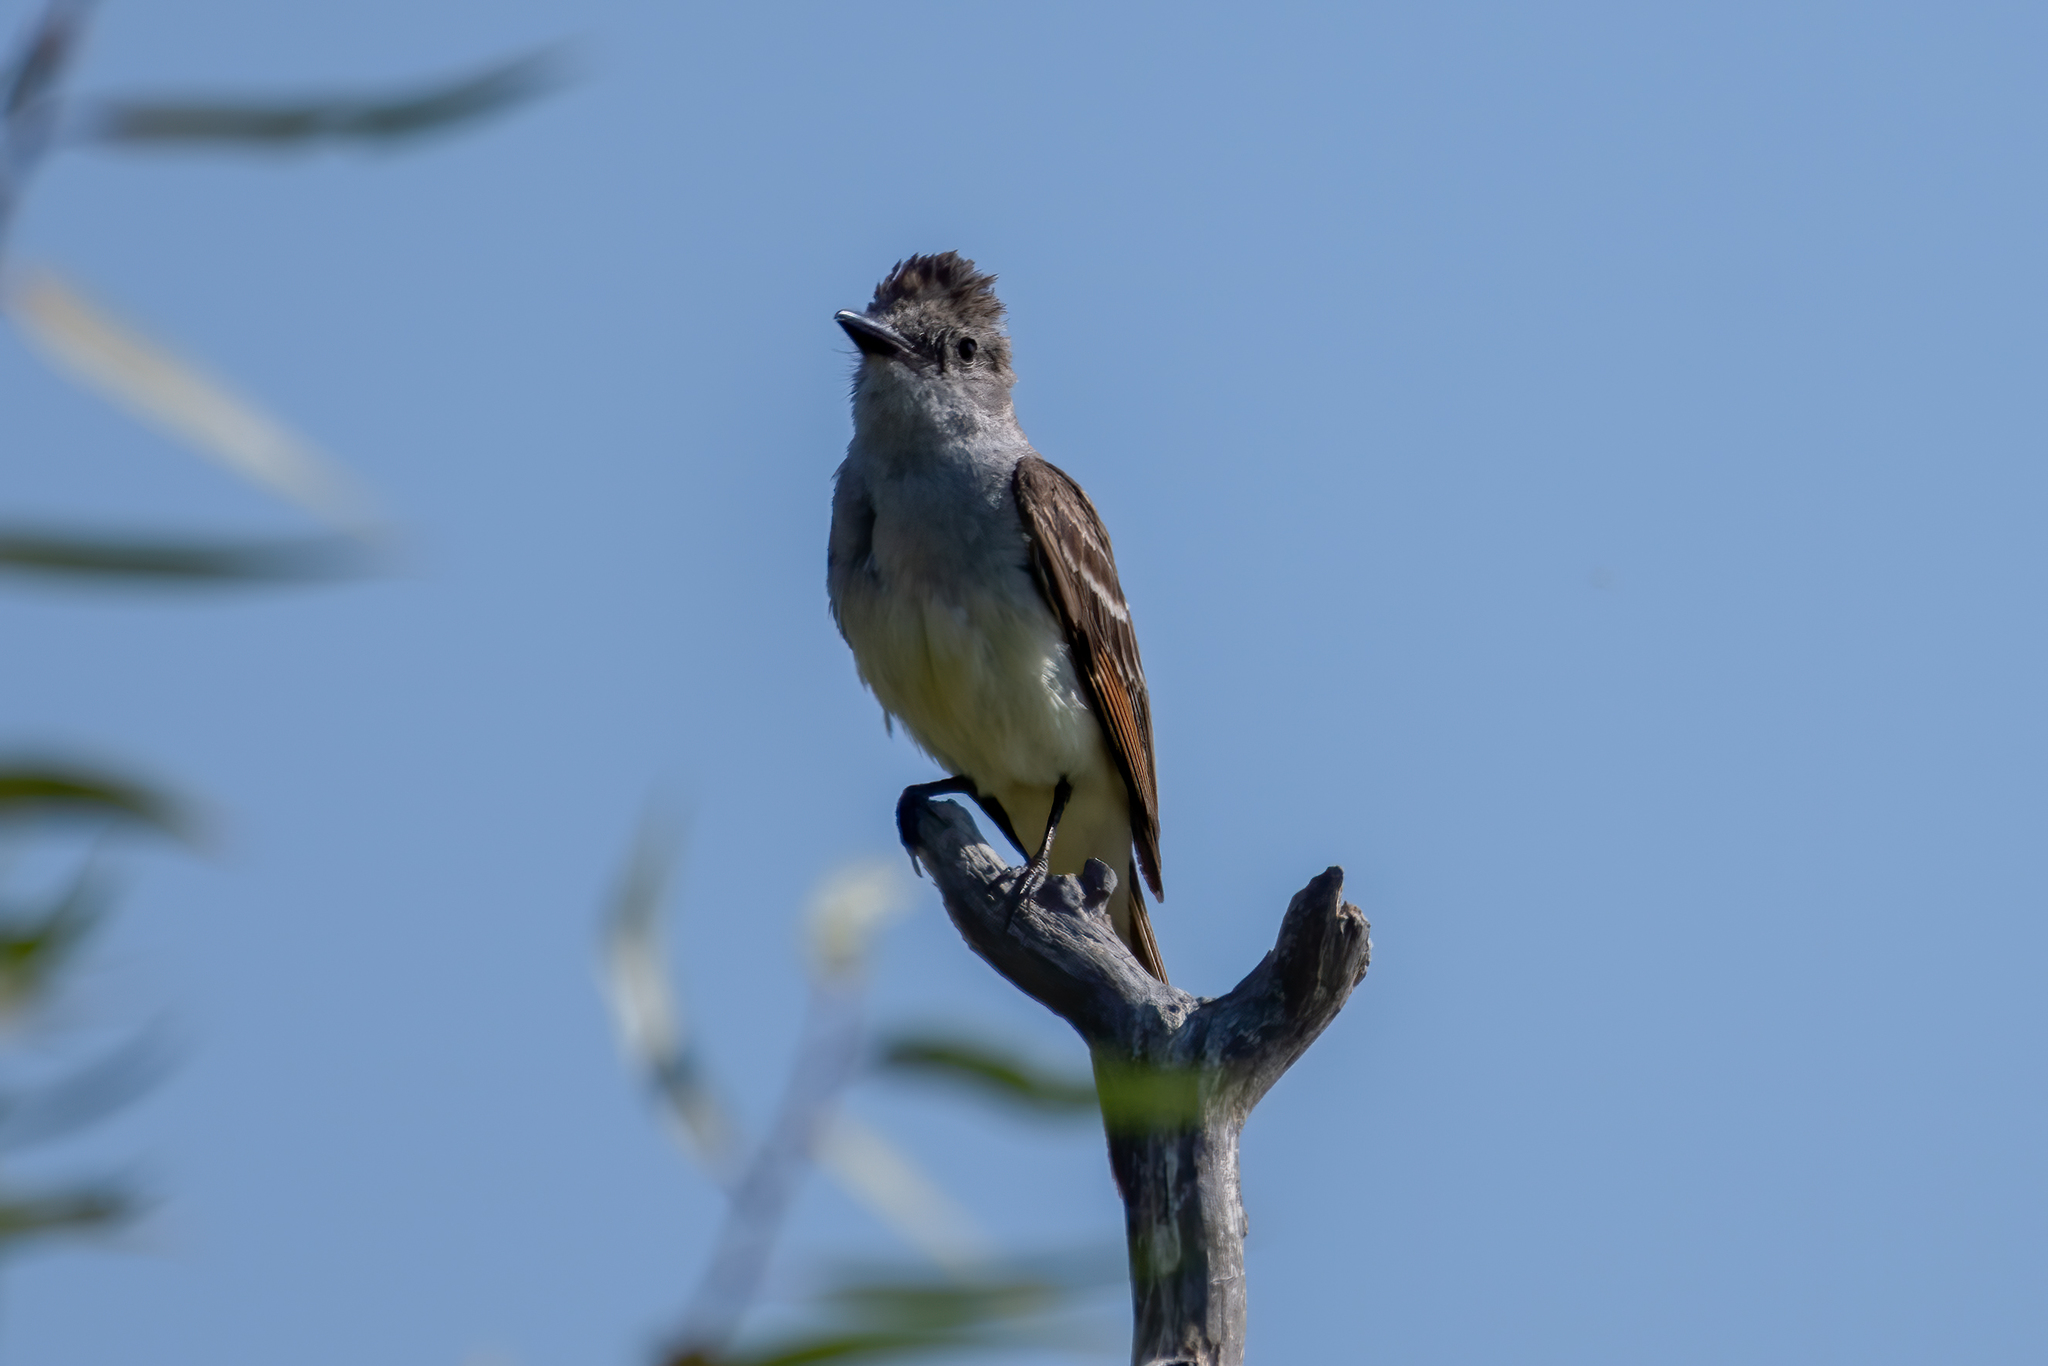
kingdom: Animalia
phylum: Chordata
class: Aves
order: Passeriformes
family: Tyrannidae
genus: Myiarchus
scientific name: Myiarchus cinerascens
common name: Ash-throated flycatcher
